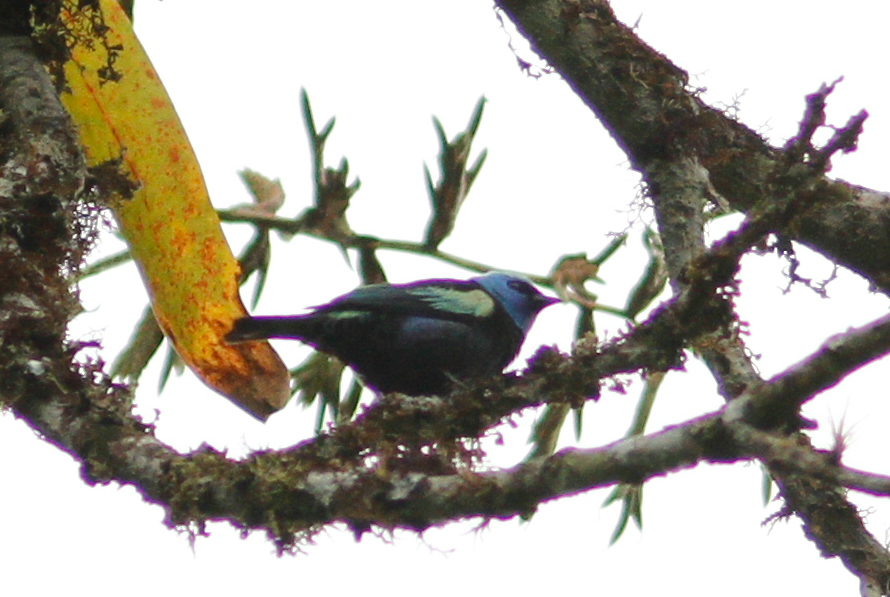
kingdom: Animalia
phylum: Chordata
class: Aves
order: Passeriformes
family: Thraupidae
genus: Stilpnia
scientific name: Stilpnia cyanicollis
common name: Blue-necked tanager
